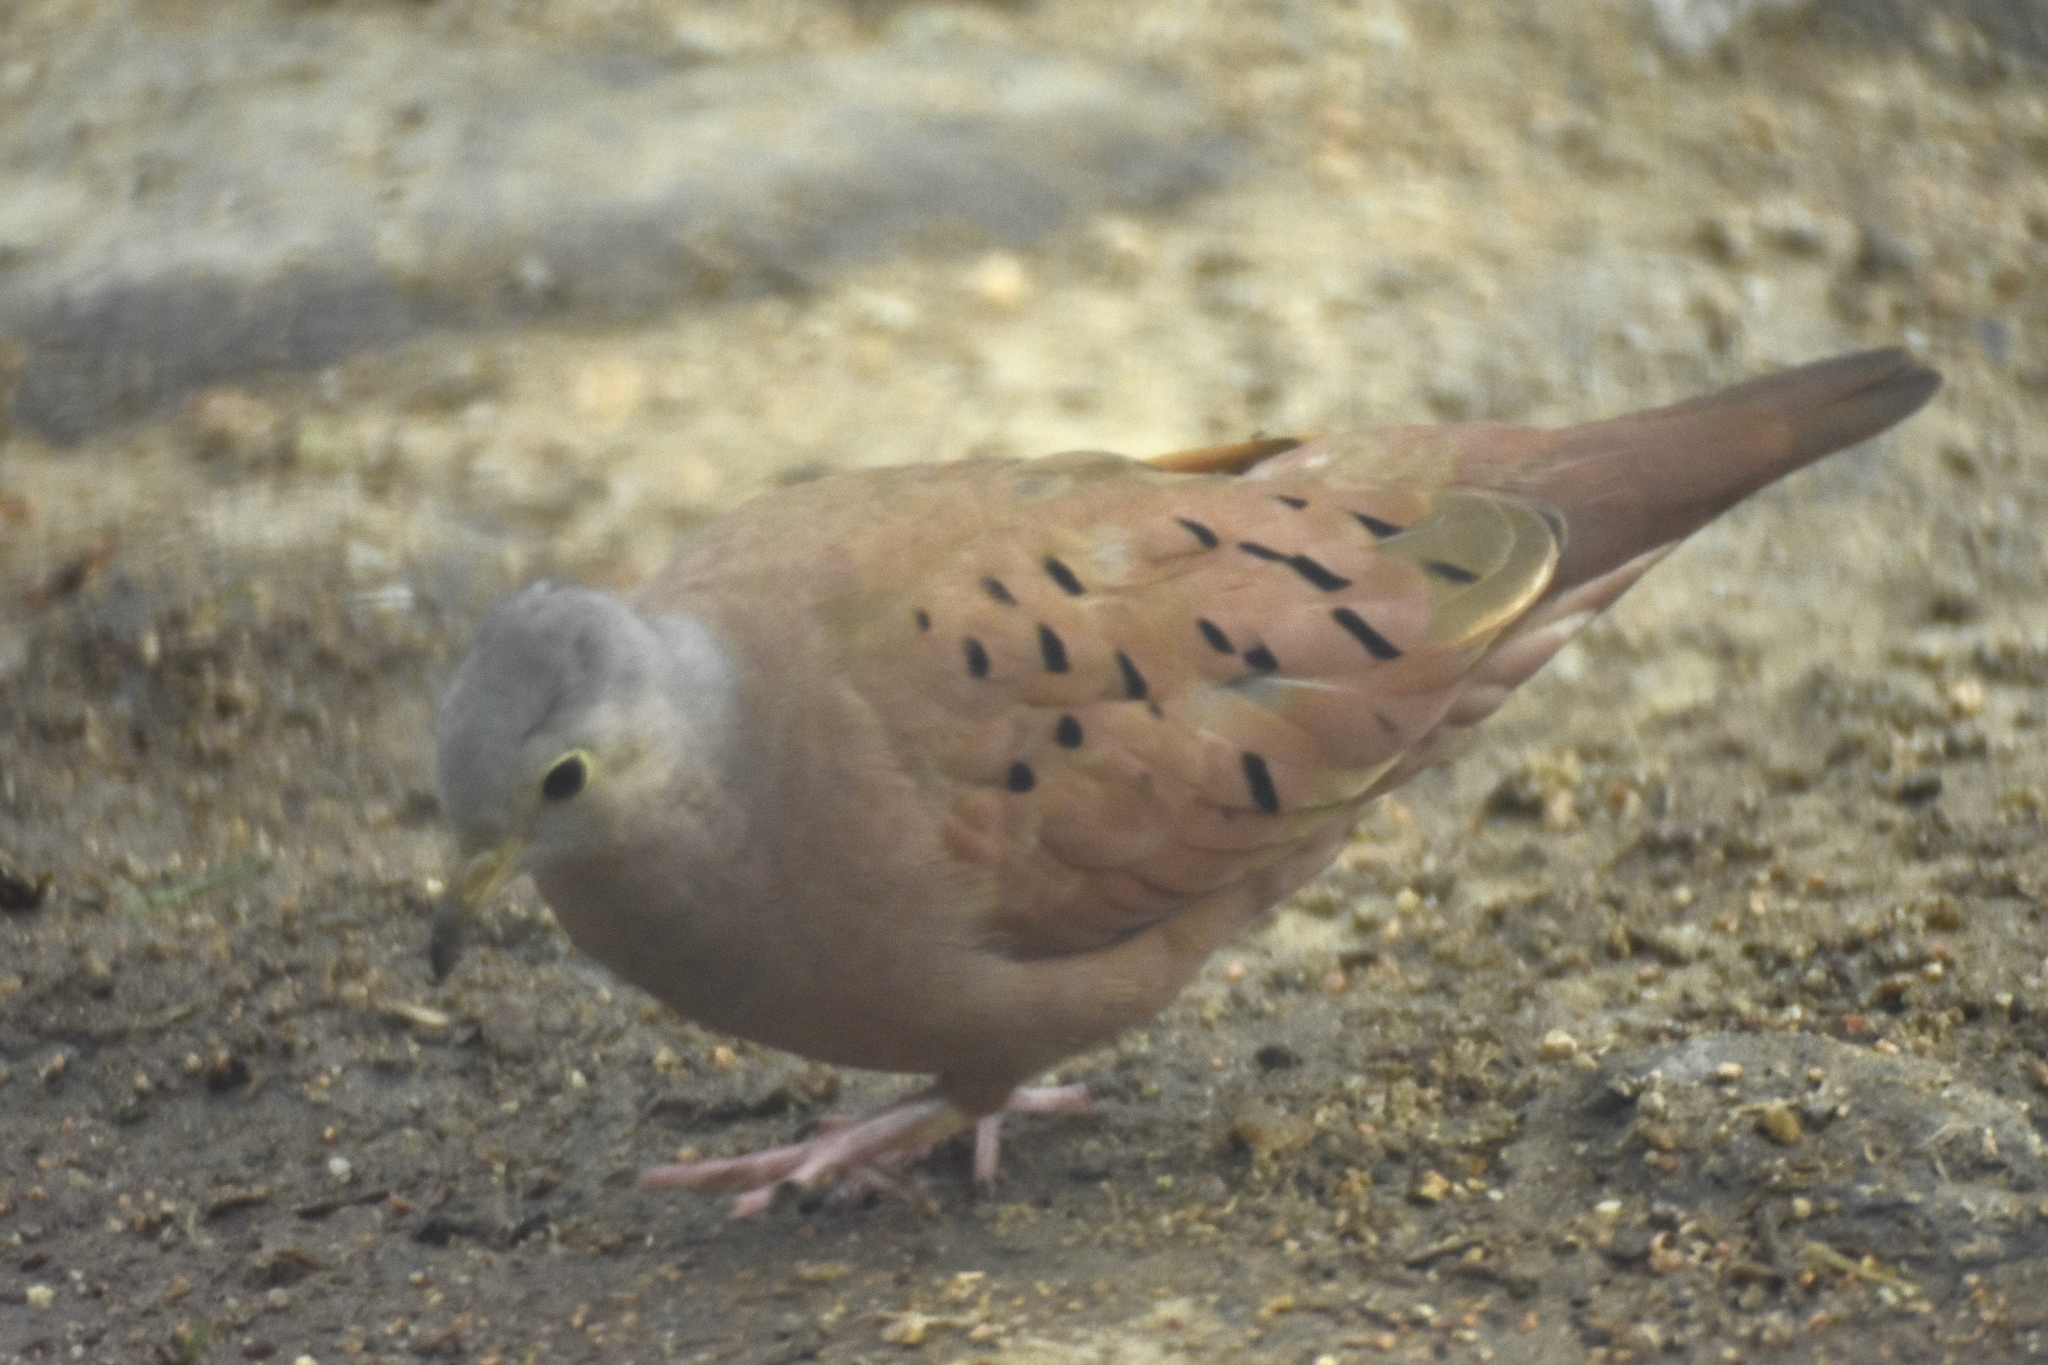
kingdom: Animalia
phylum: Chordata
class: Aves
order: Columbiformes
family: Columbidae
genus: Columbina
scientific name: Columbina talpacoti
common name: Ruddy ground dove
